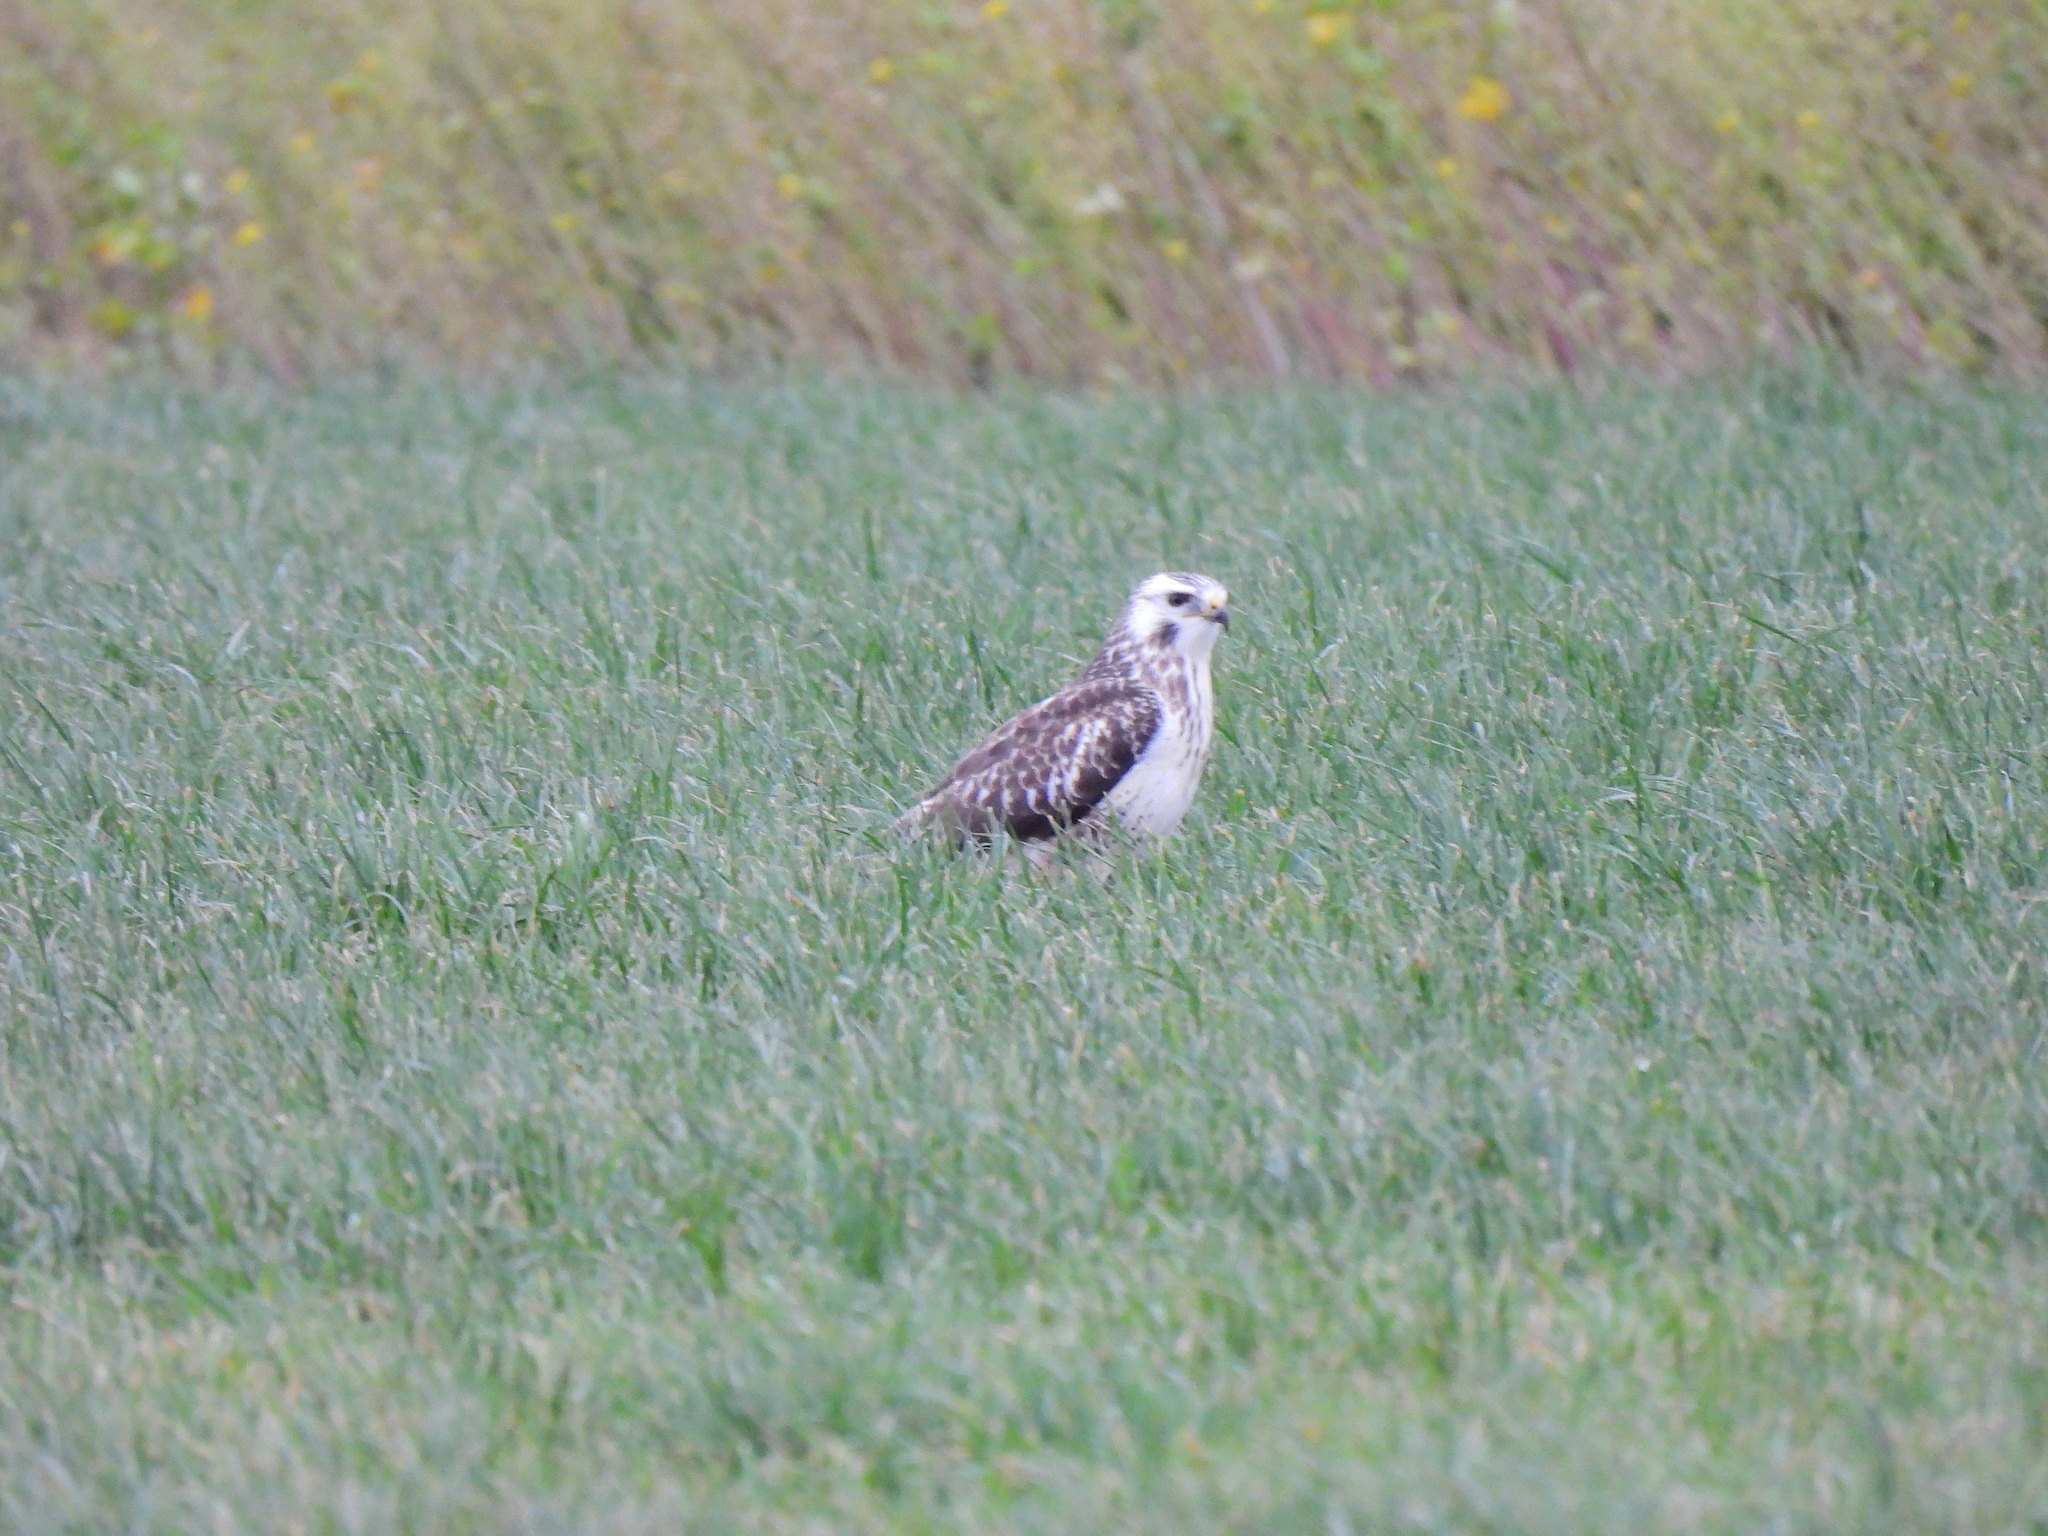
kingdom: Animalia
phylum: Chordata
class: Aves
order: Accipitriformes
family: Accipitridae
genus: Buteo
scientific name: Buteo buteo
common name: Common buzzard
